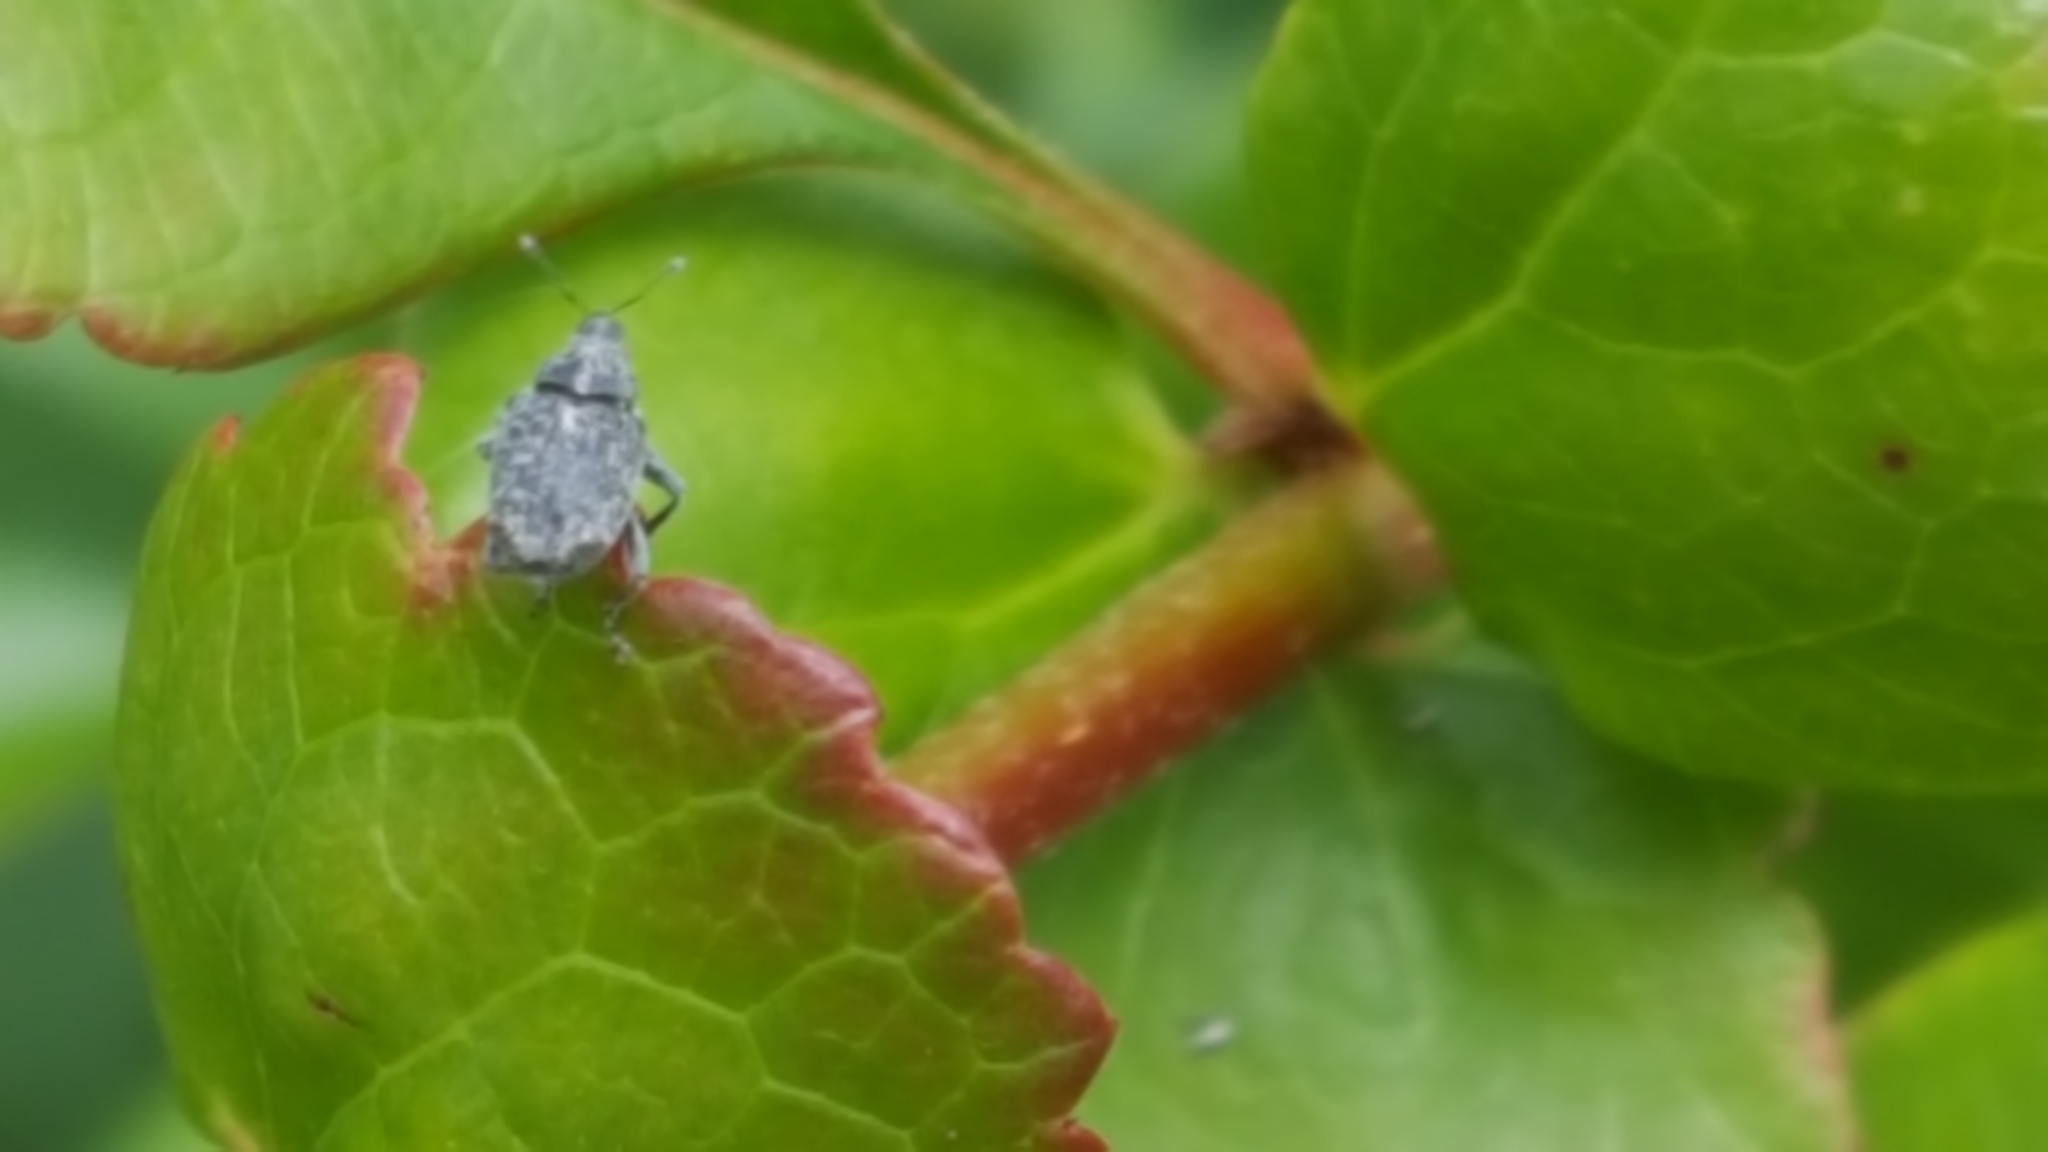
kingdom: Animalia
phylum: Arthropoda
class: Insecta
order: Coleoptera
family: Curculionidae
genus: Ceutorhynchus
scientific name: Ceutorhynchus pallidactylus
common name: Cabbage stem weavil
